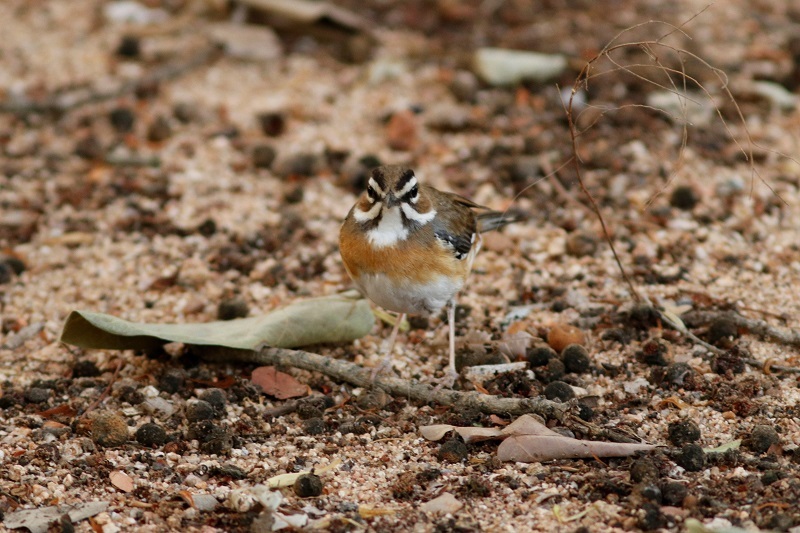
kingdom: Animalia
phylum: Chordata
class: Aves
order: Passeriformes
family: Muscicapidae
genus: Erythropygia
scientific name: Erythropygia quadrivirgata
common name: Bearded scrub robin
